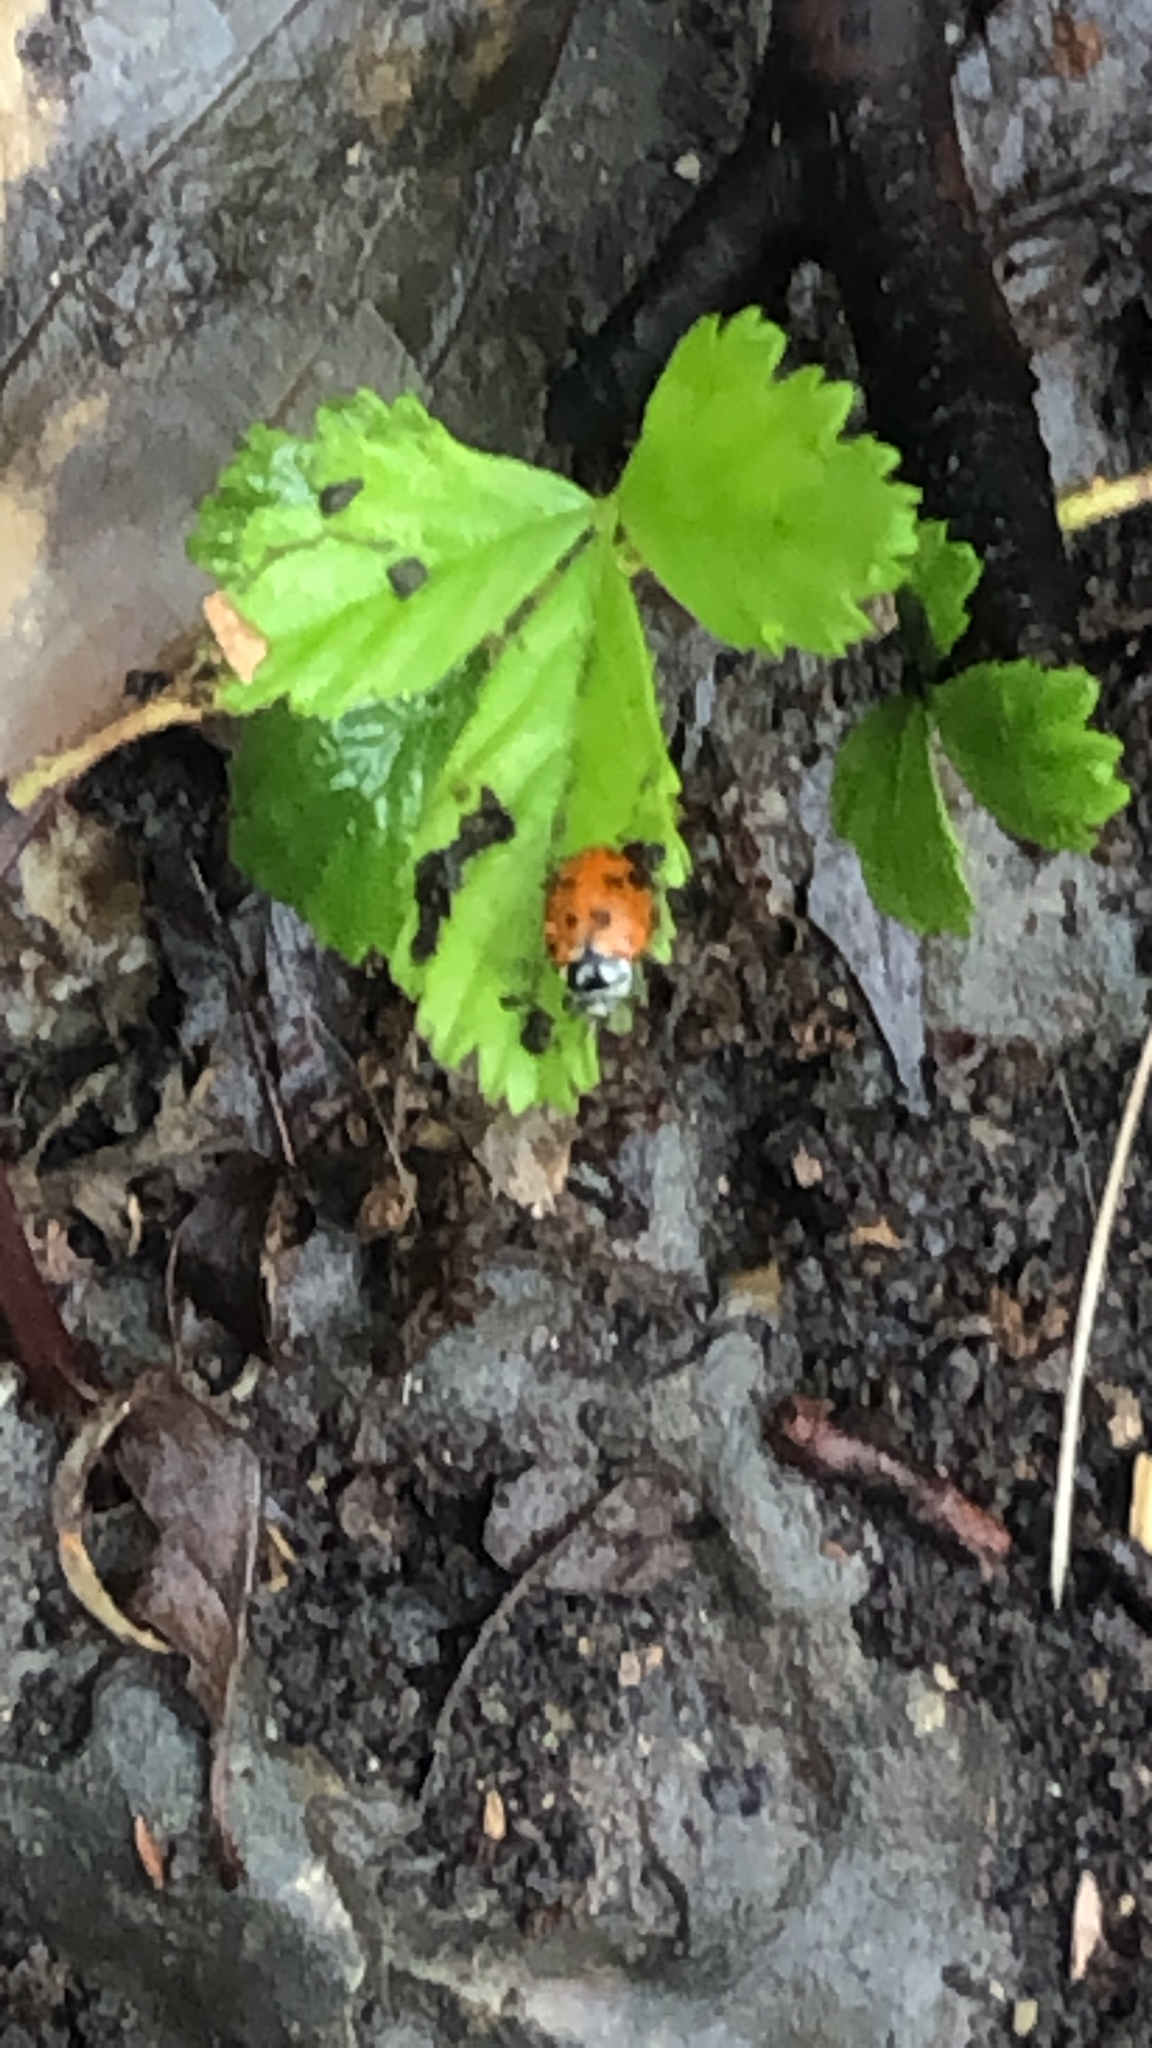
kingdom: Animalia
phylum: Arthropoda
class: Insecta
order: Coleoptera
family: Coccinellidae
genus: Hippodamia
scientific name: Hippodamia convergens
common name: Convergent lady beetle
